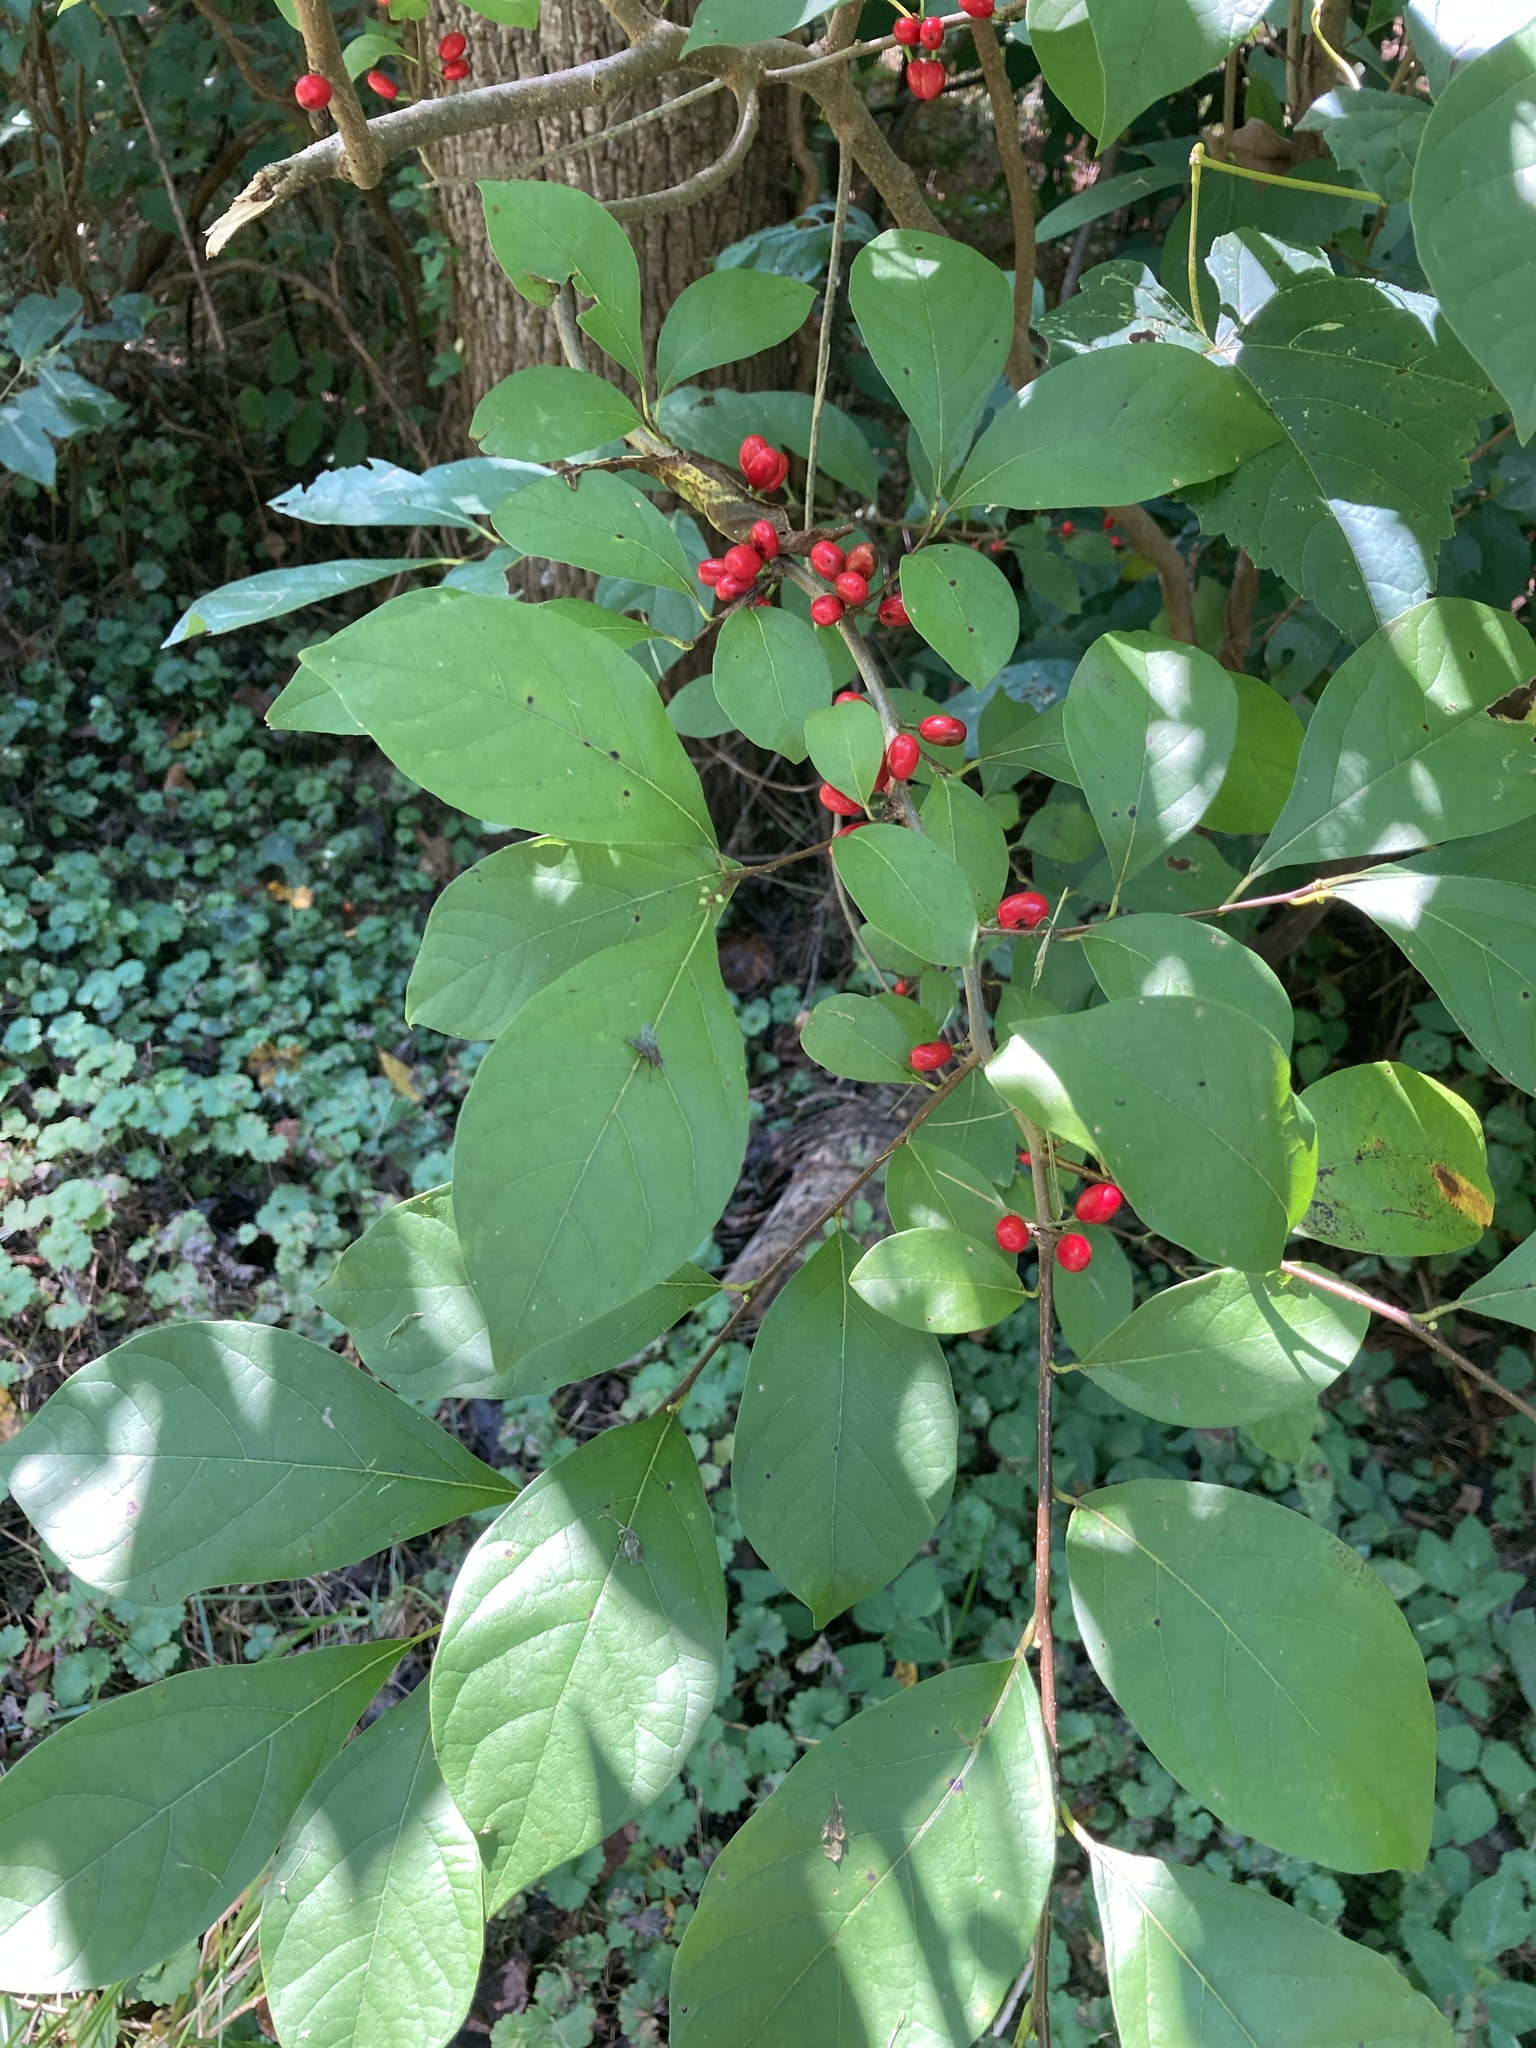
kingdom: Plantae
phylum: Tracheophyta
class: Magnoliopsida
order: Laurales
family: Lauraceae
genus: Lindera
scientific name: Lindera benzoin
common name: Spicebush
